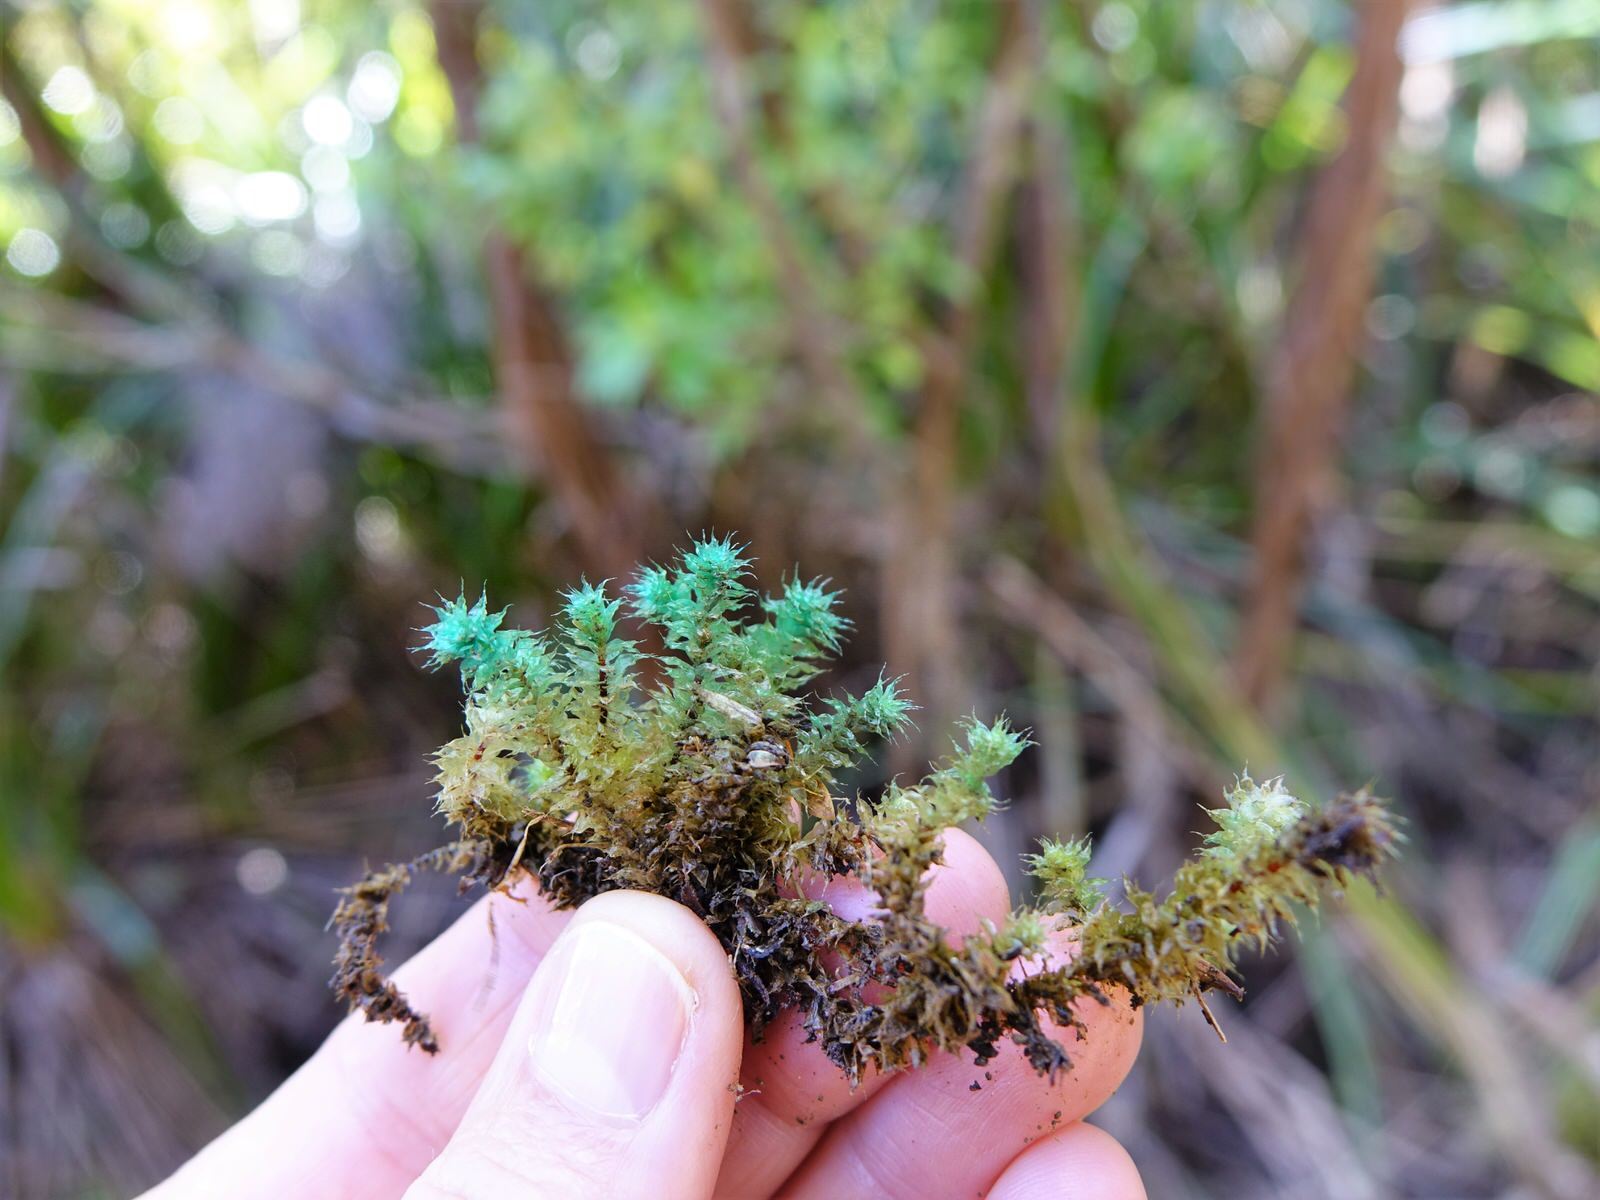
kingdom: Plantae
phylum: Bryophyta
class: Bryopsida
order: Ptychomniales
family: Ptychomniaceae
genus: Ptychomnion
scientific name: Ptychomnion aciculare
